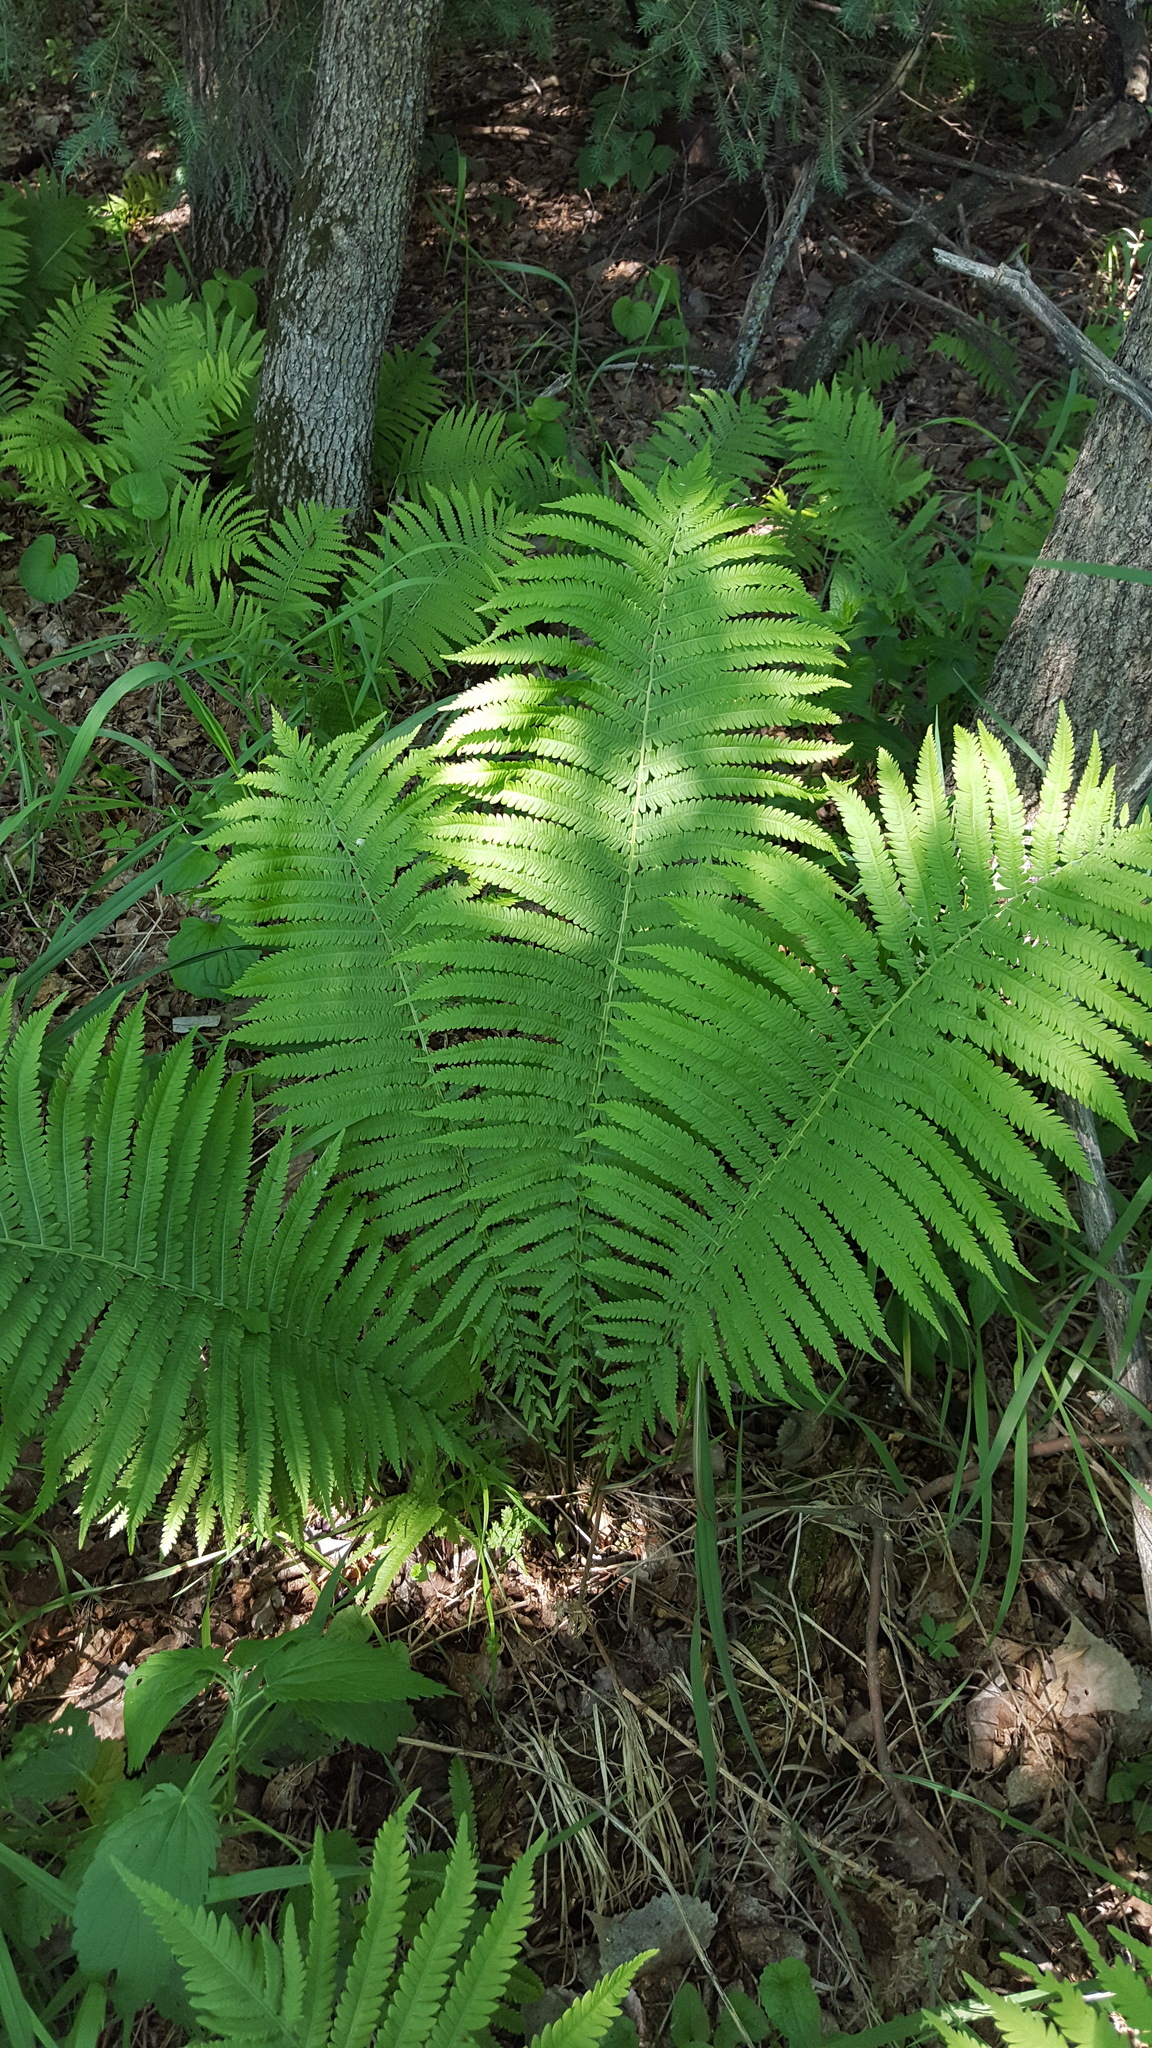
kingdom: Plantae
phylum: Tracheophyta
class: Polypodiopsida
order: Polypodiales
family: Onocleaceae
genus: Matteuccia
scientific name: Matteuccia struthiopteris
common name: Ostrich fern
